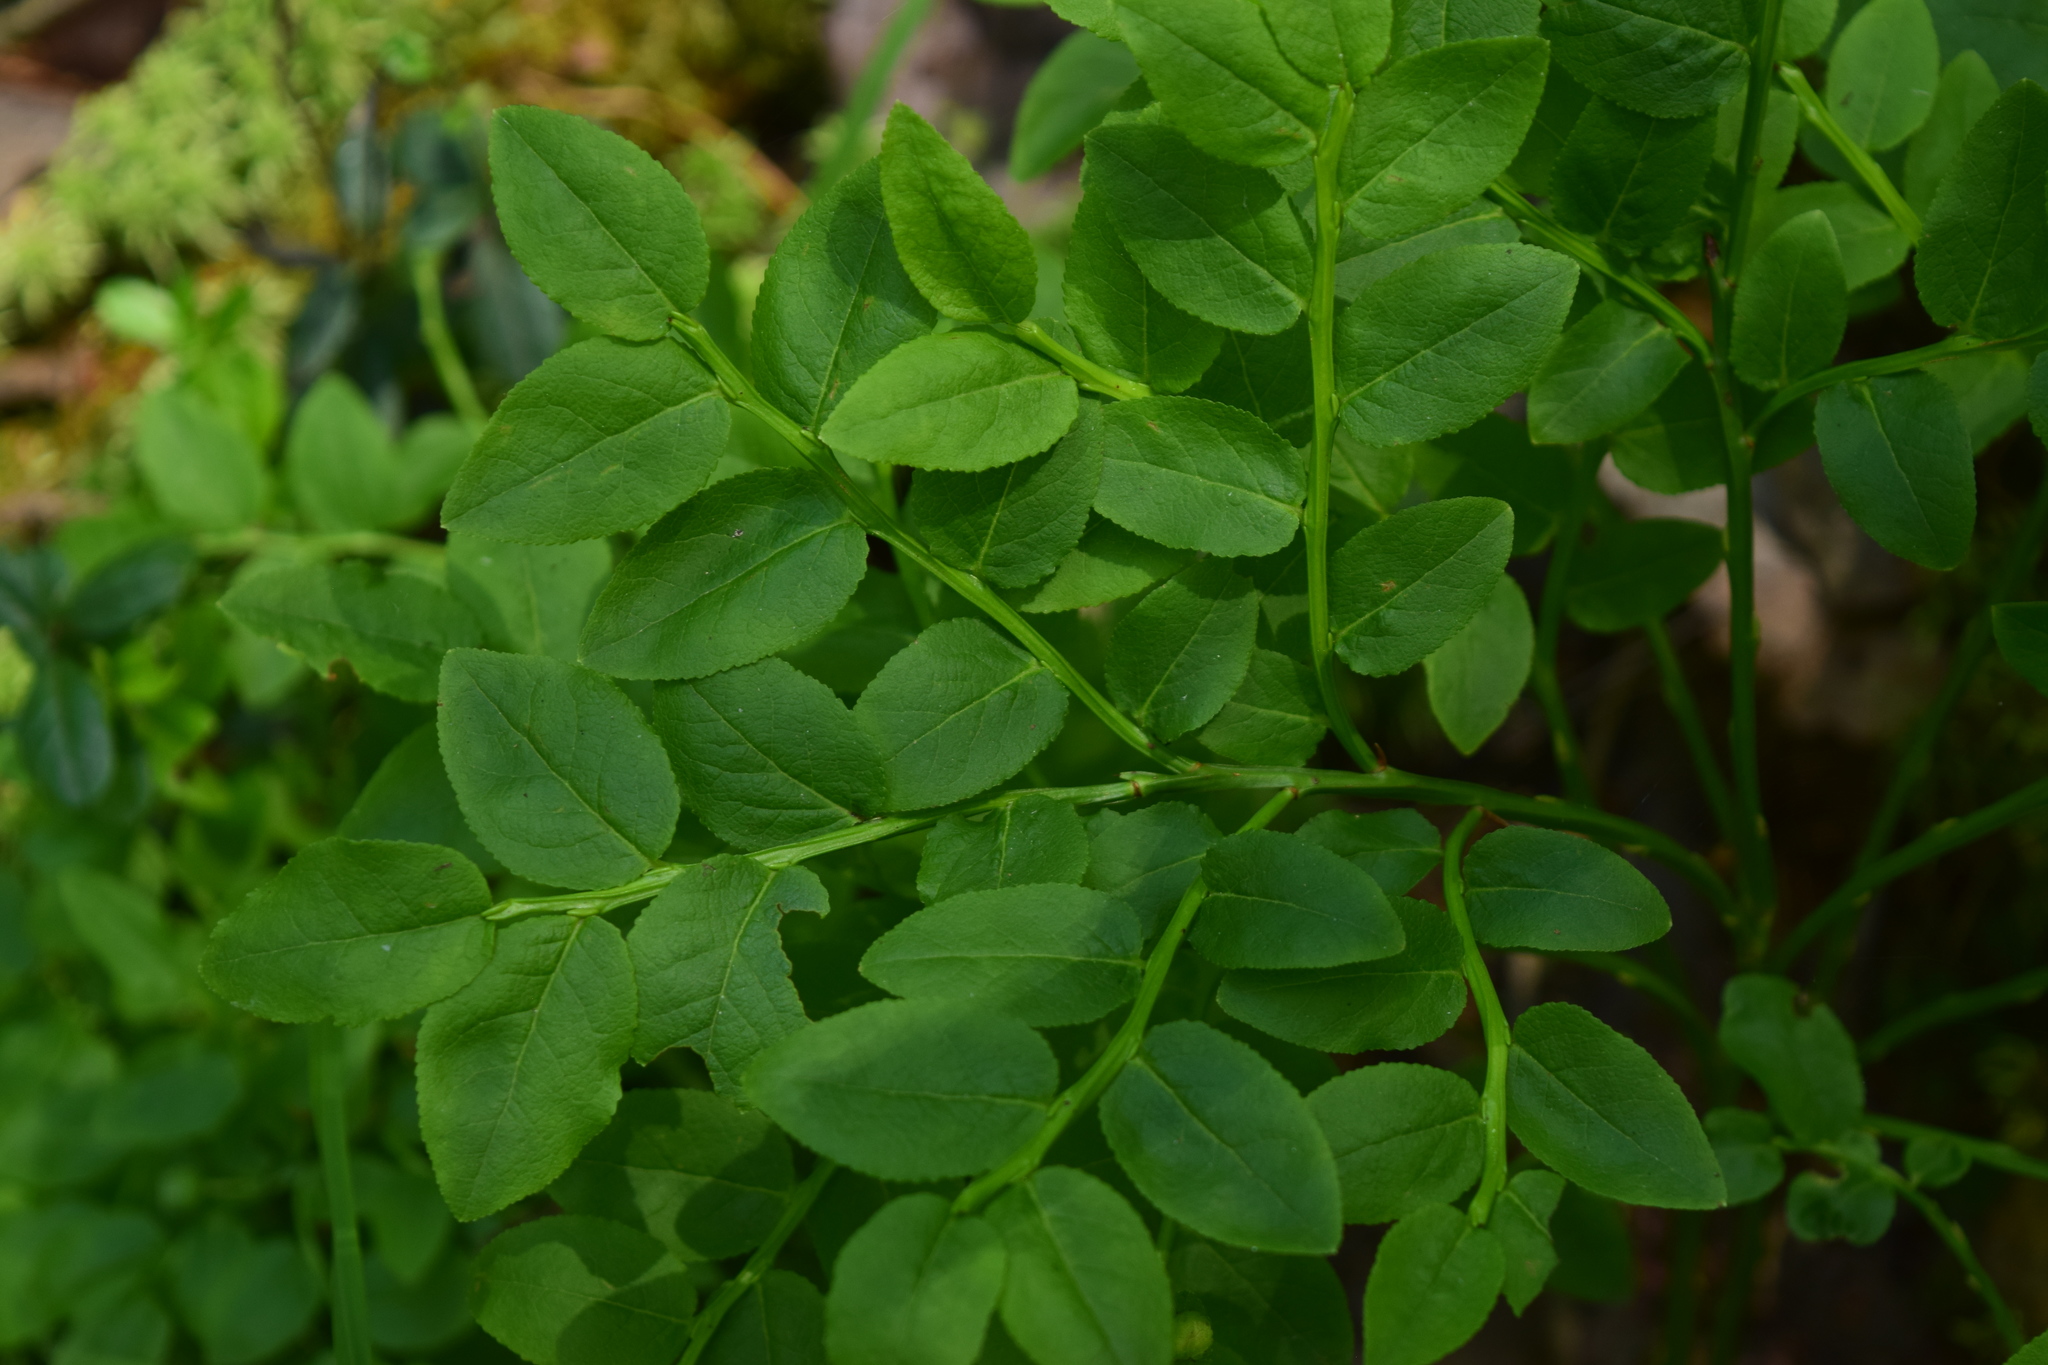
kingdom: Plantae
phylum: Tracheophyta
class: Magnoliopsida
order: Ericales
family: Ericaceae
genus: Vaccinium
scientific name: Vaccinium myrtillus
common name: Bilberry
